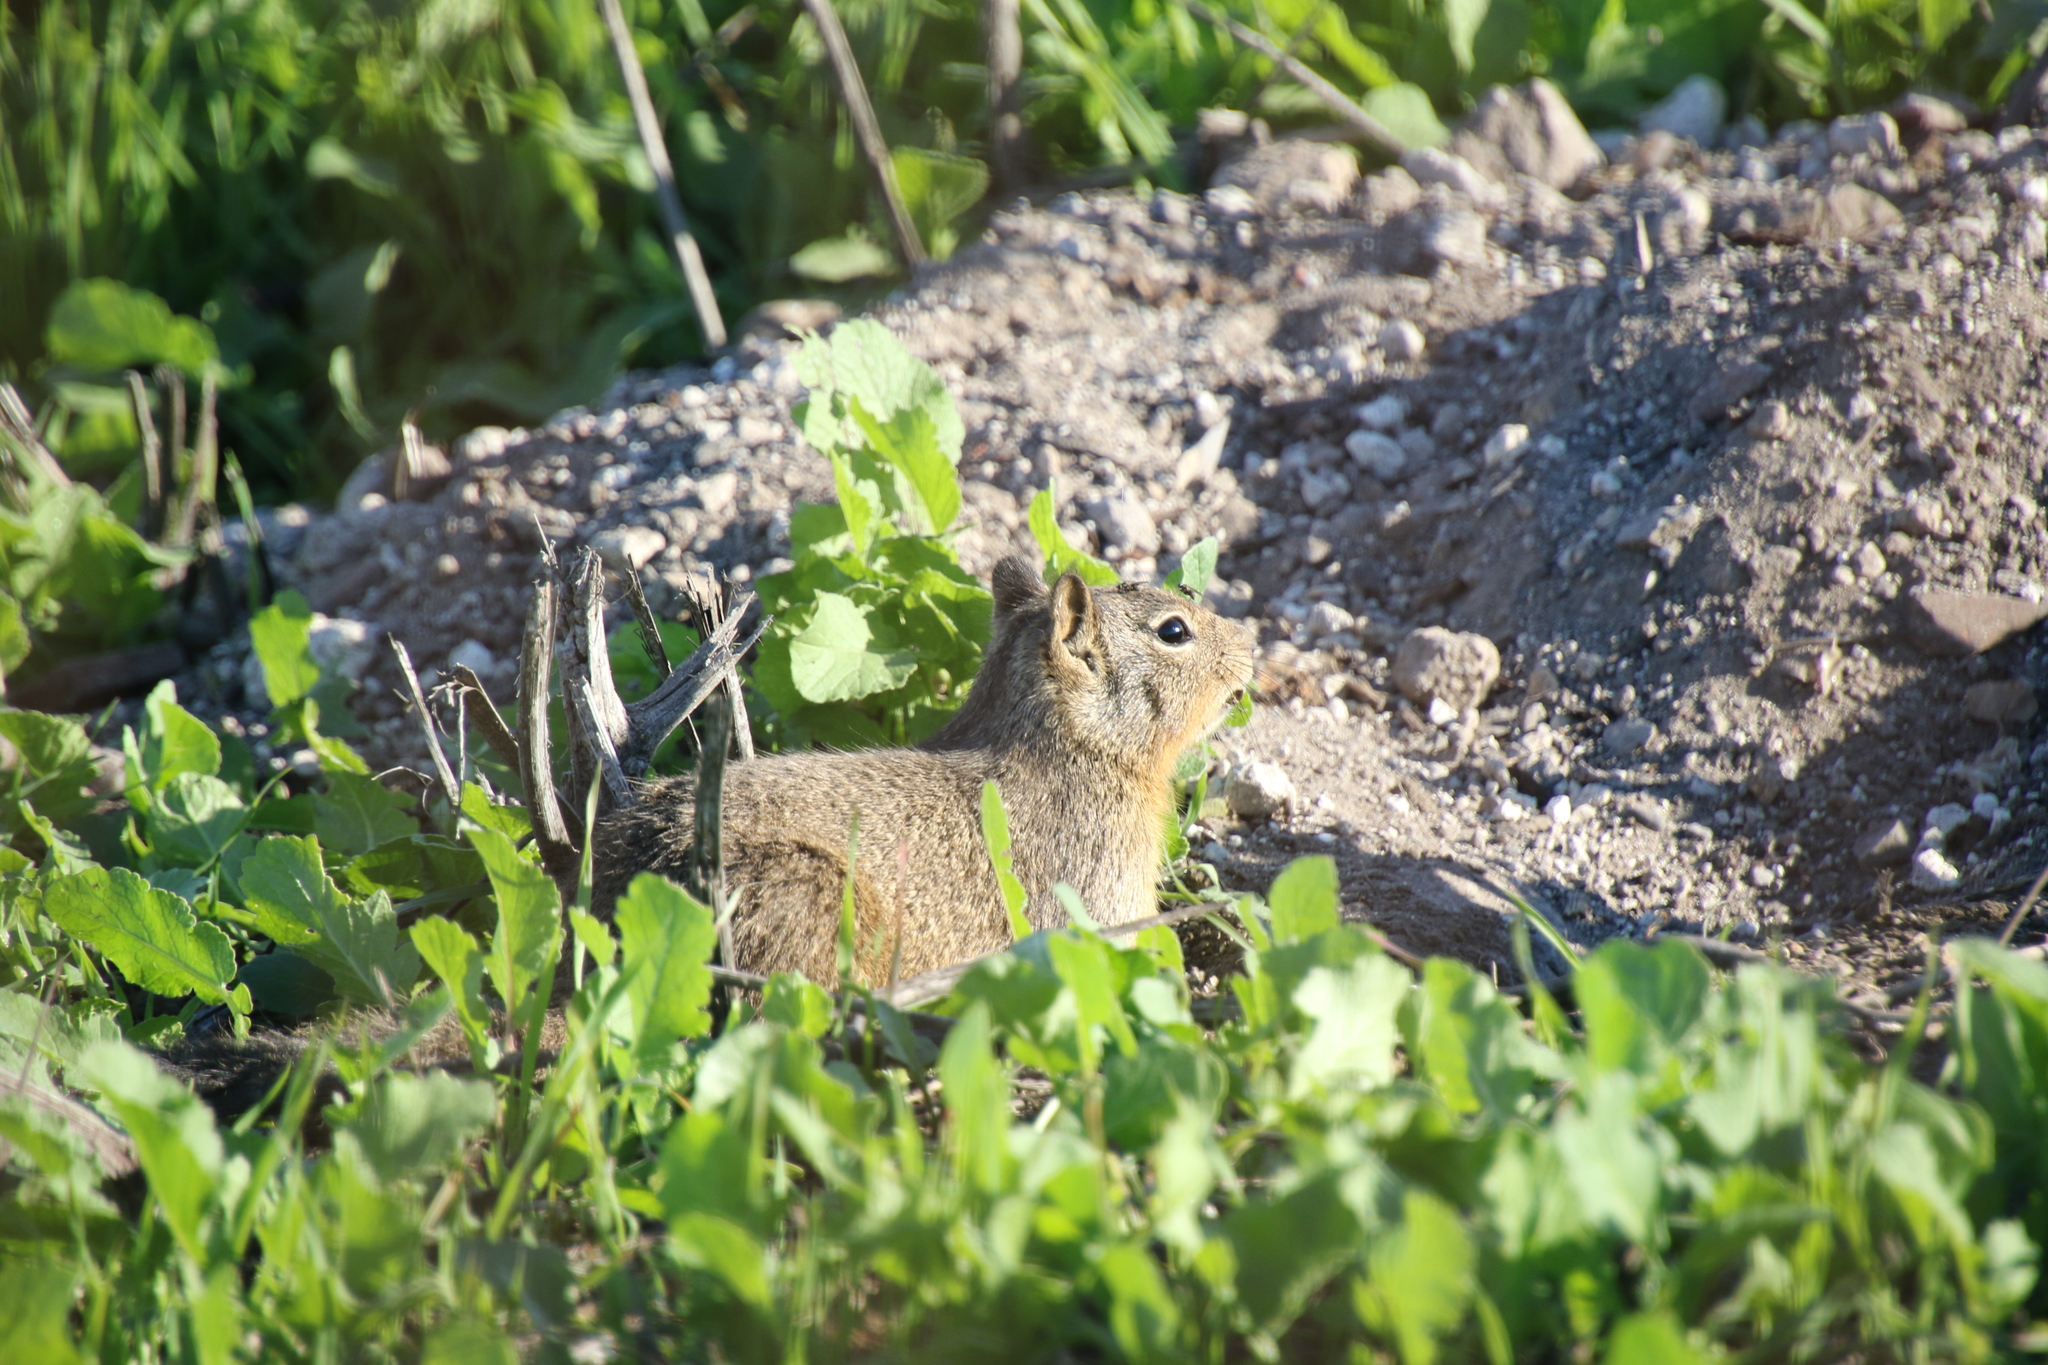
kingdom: Animalia
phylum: Chordata
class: Mammalia
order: Rodentia
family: Sciuridae
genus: Otospermophilus
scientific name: Otospermophilus beecheyi
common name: California ground squirrel
